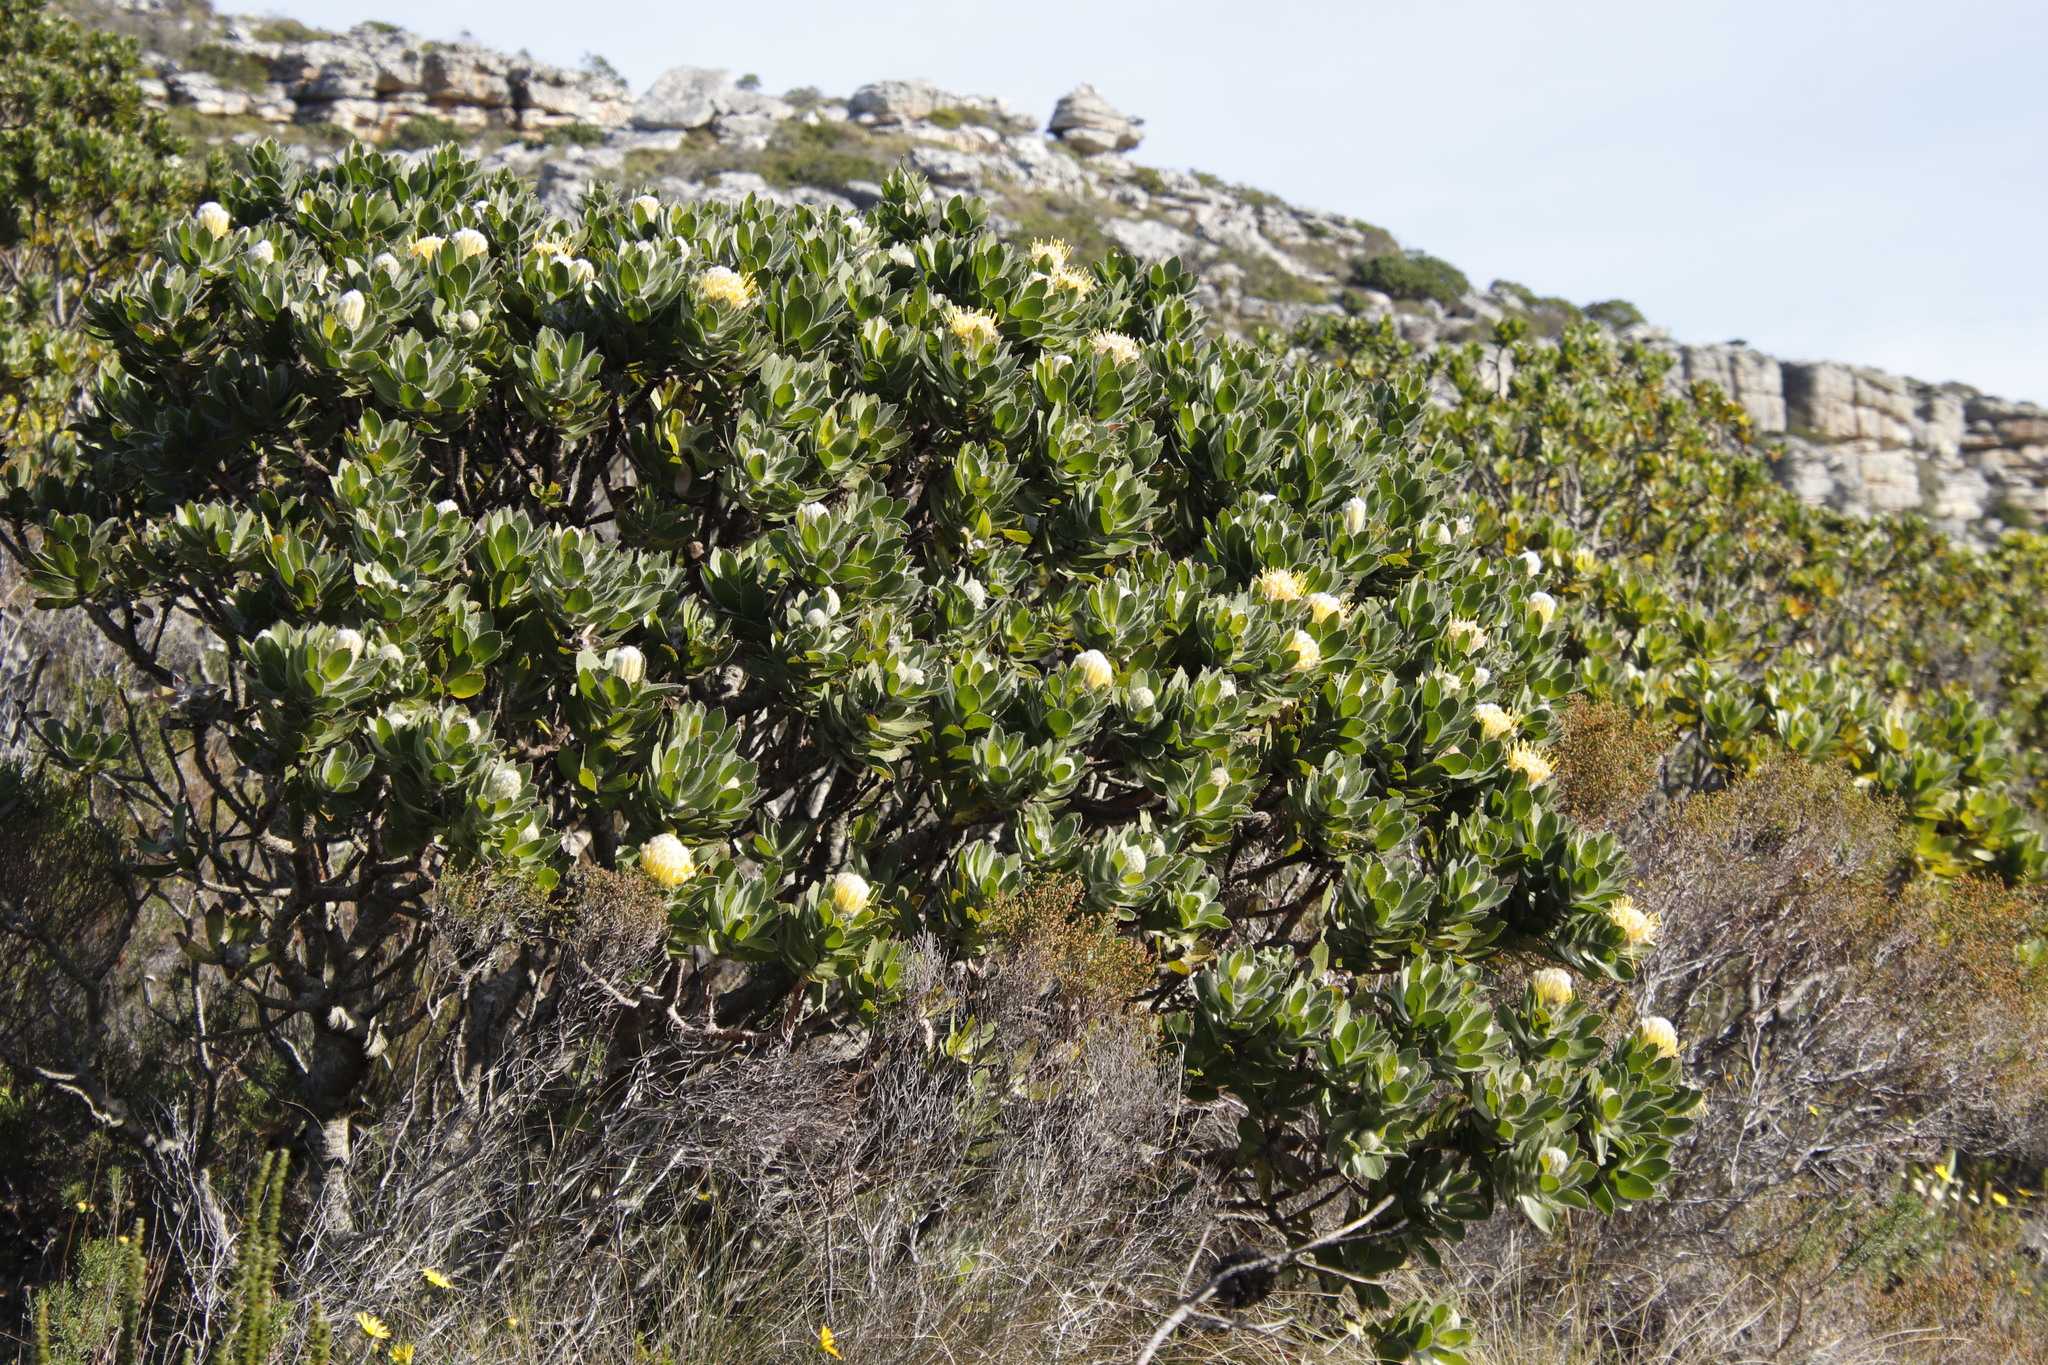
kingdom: Plantae
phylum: Tracheophyta
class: Magnoliopsida
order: Proteales
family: Proteaceae
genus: Leucospermum
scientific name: Leucospermum conocarpodendron
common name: Tree pincushion
